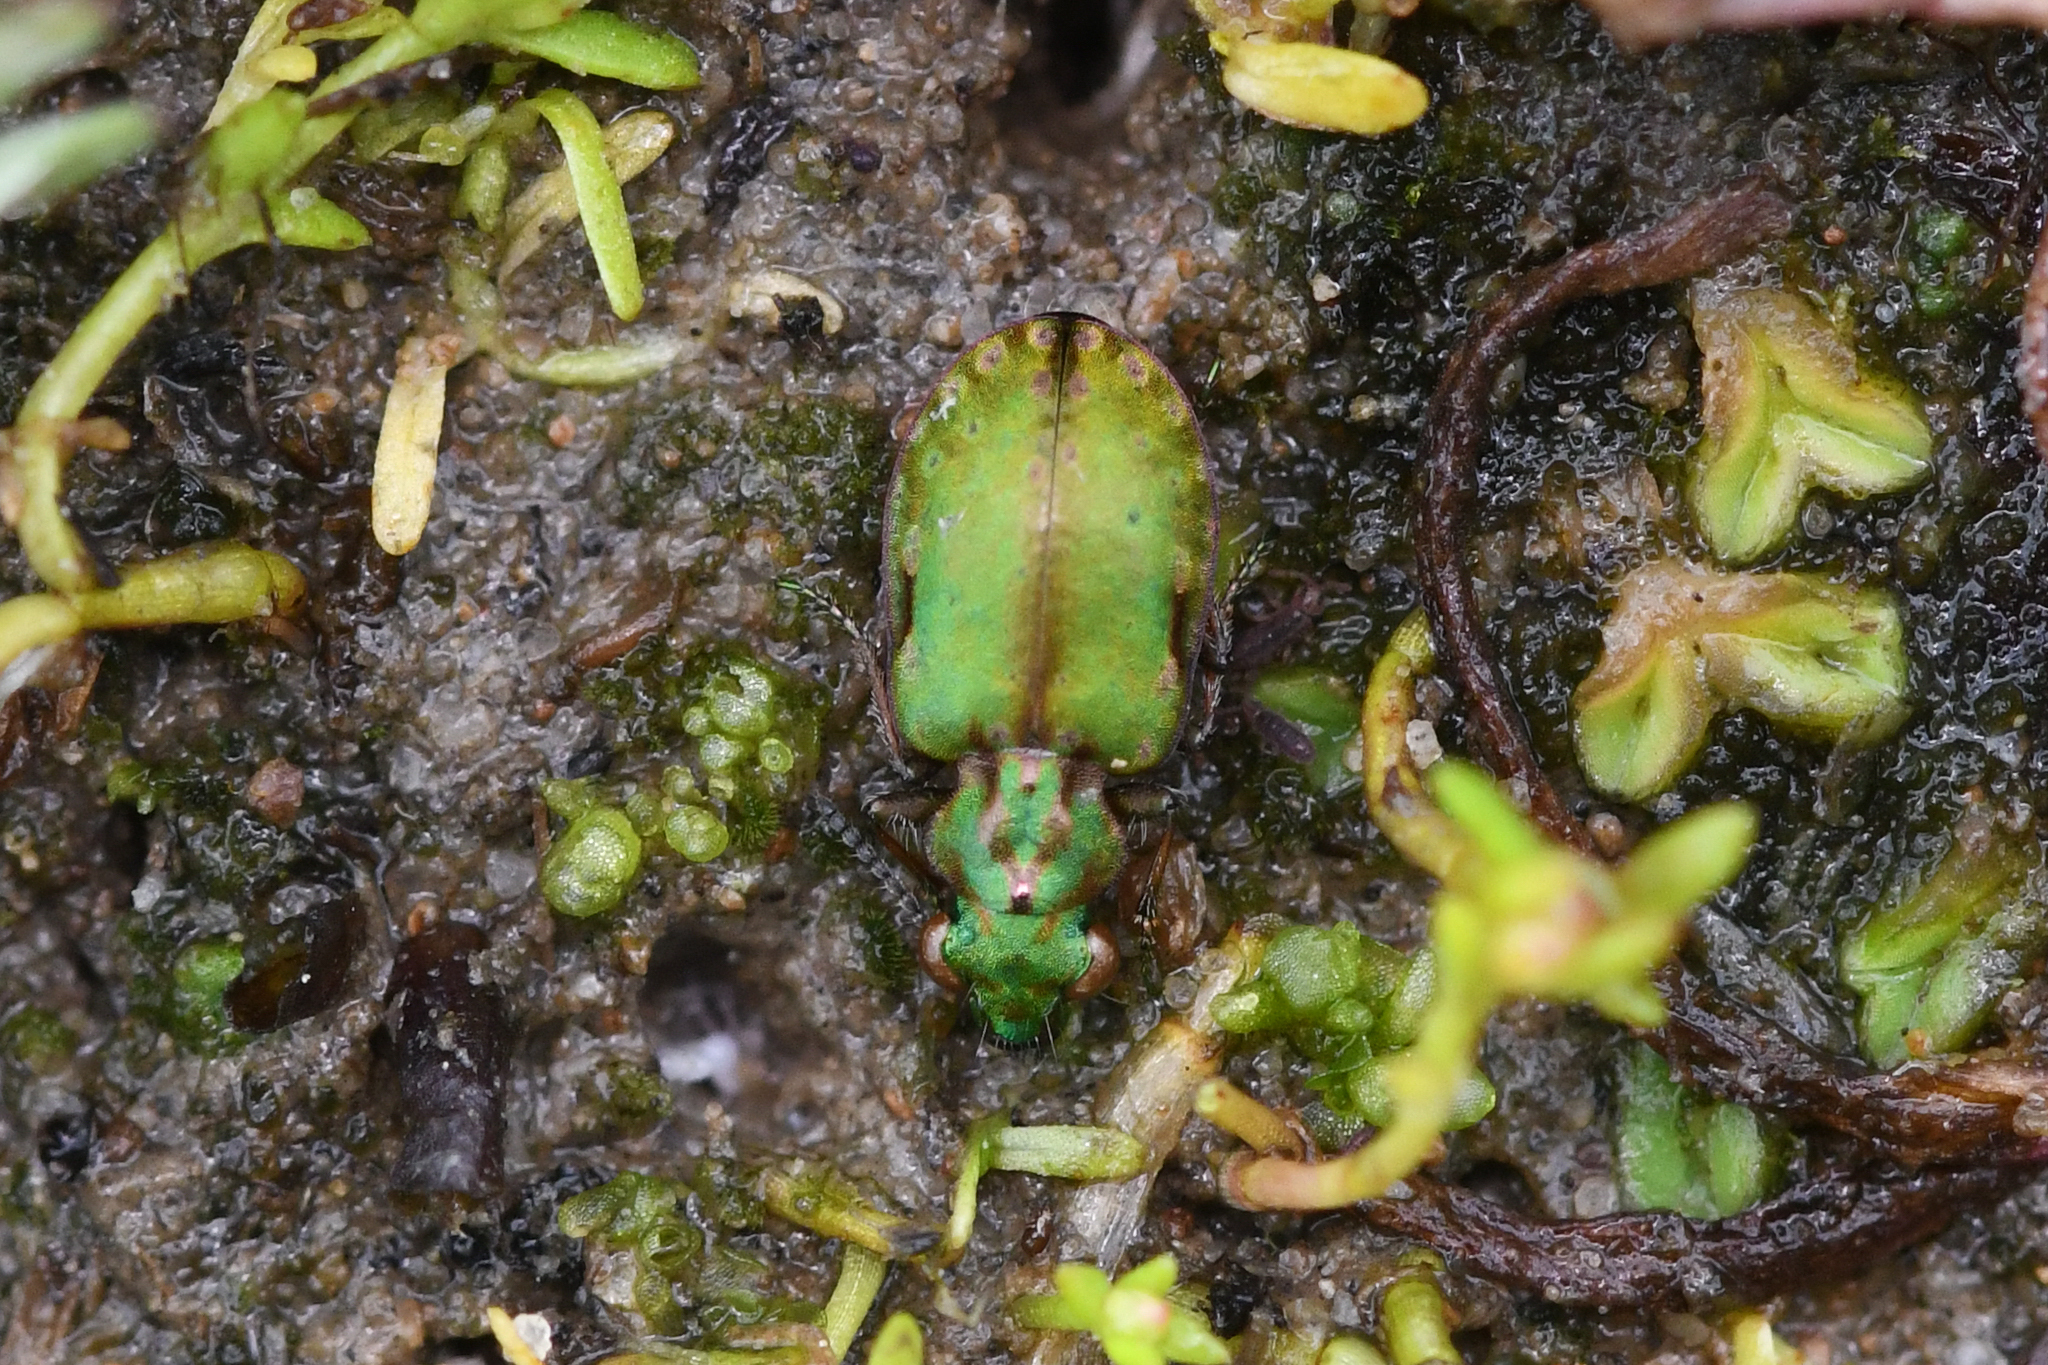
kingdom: Animalia
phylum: Arthropoda
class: Insecta
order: Coleoptera
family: Carabidae
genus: Elaphrus
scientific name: Elaphrus viridis
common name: Delta green ground beetle
